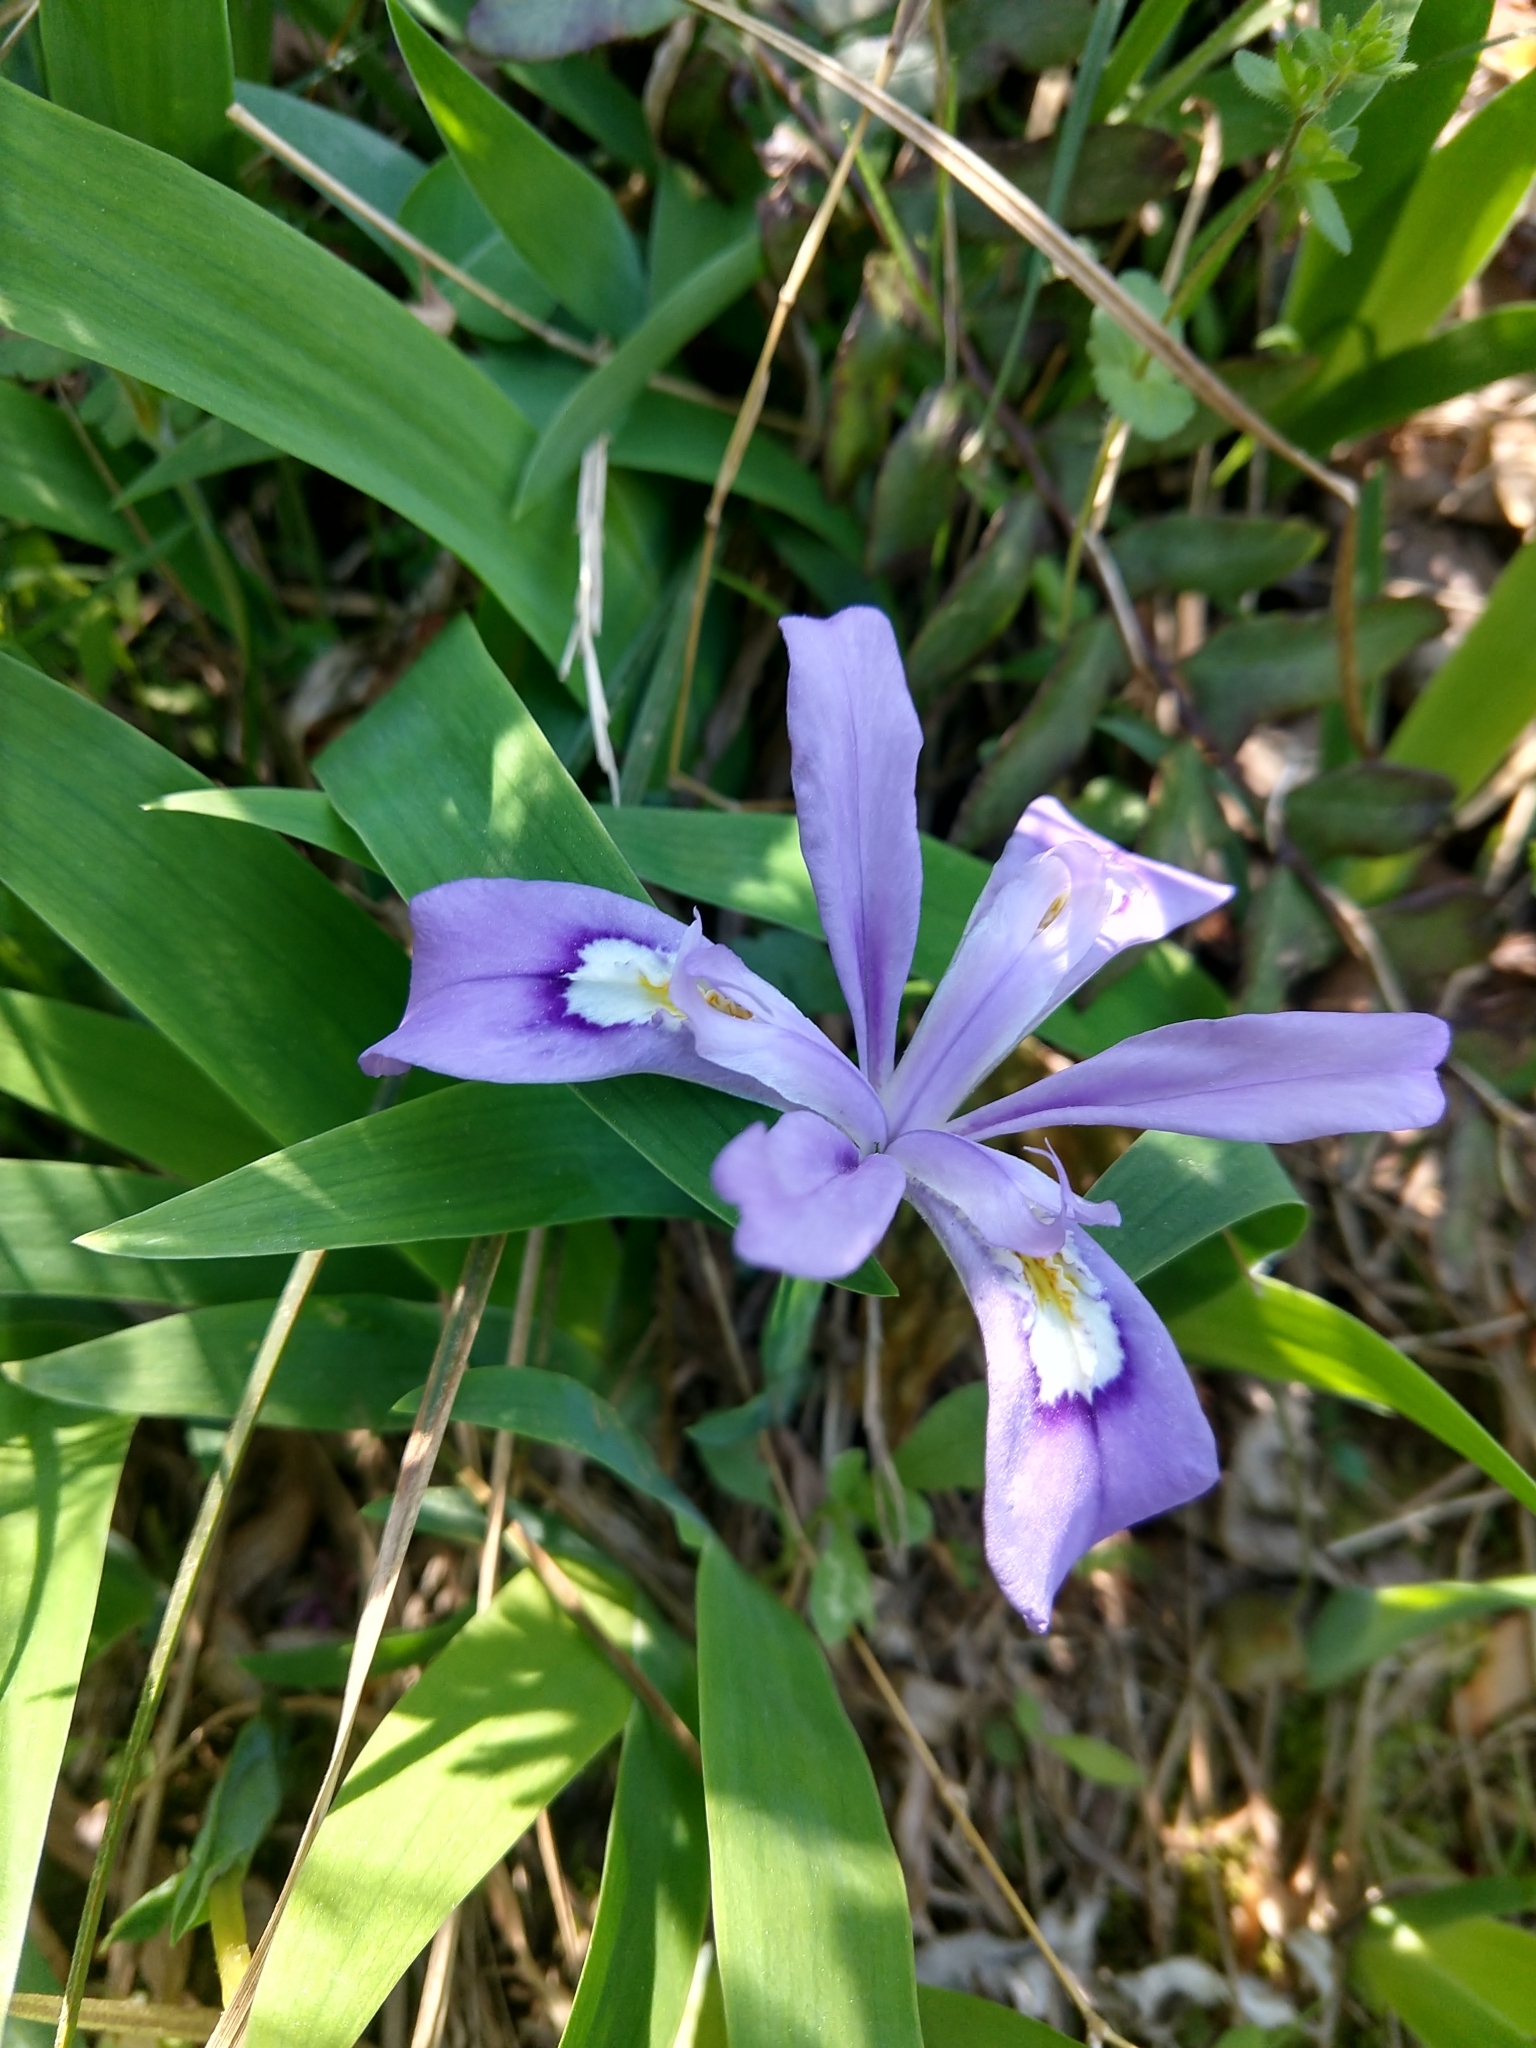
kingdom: Plantae
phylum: Tracheophyta
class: Liliopsida
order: Asparagales
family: Iridaceae
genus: Iris
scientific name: Iris cristata
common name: Crested iris
